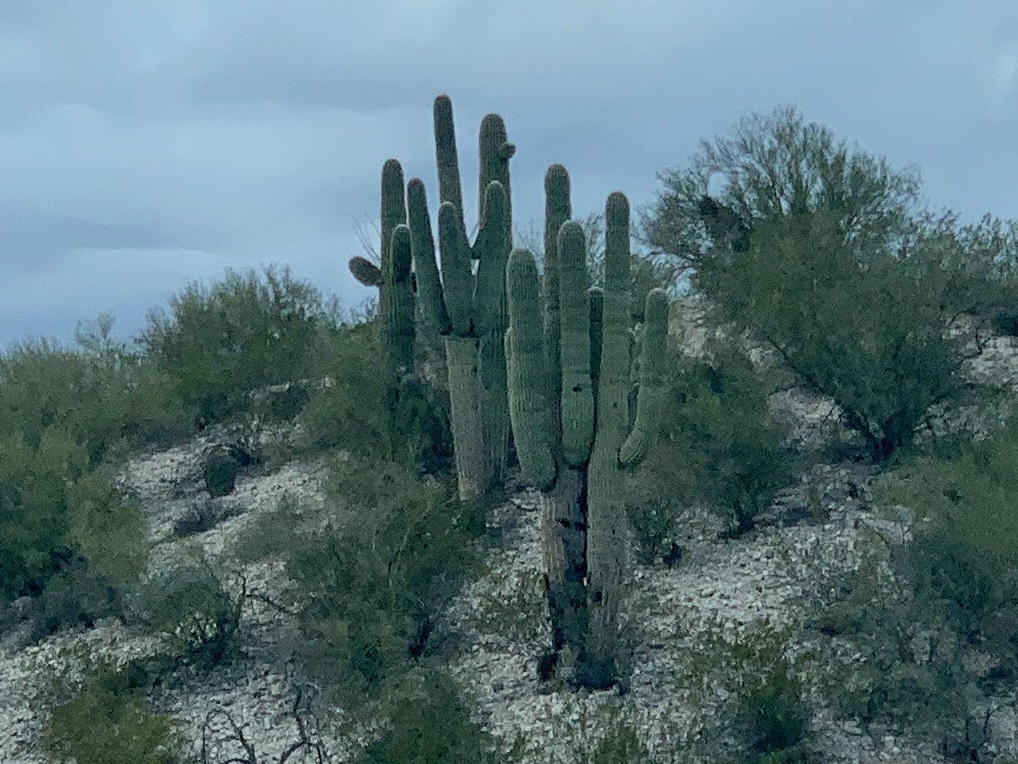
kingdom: Plantae
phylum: Tracheophyta
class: Magnoliopsida
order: Caryophyllales
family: Cactaceae
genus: Carnegiea
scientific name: Carnegiea gigantea
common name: Saguaro
